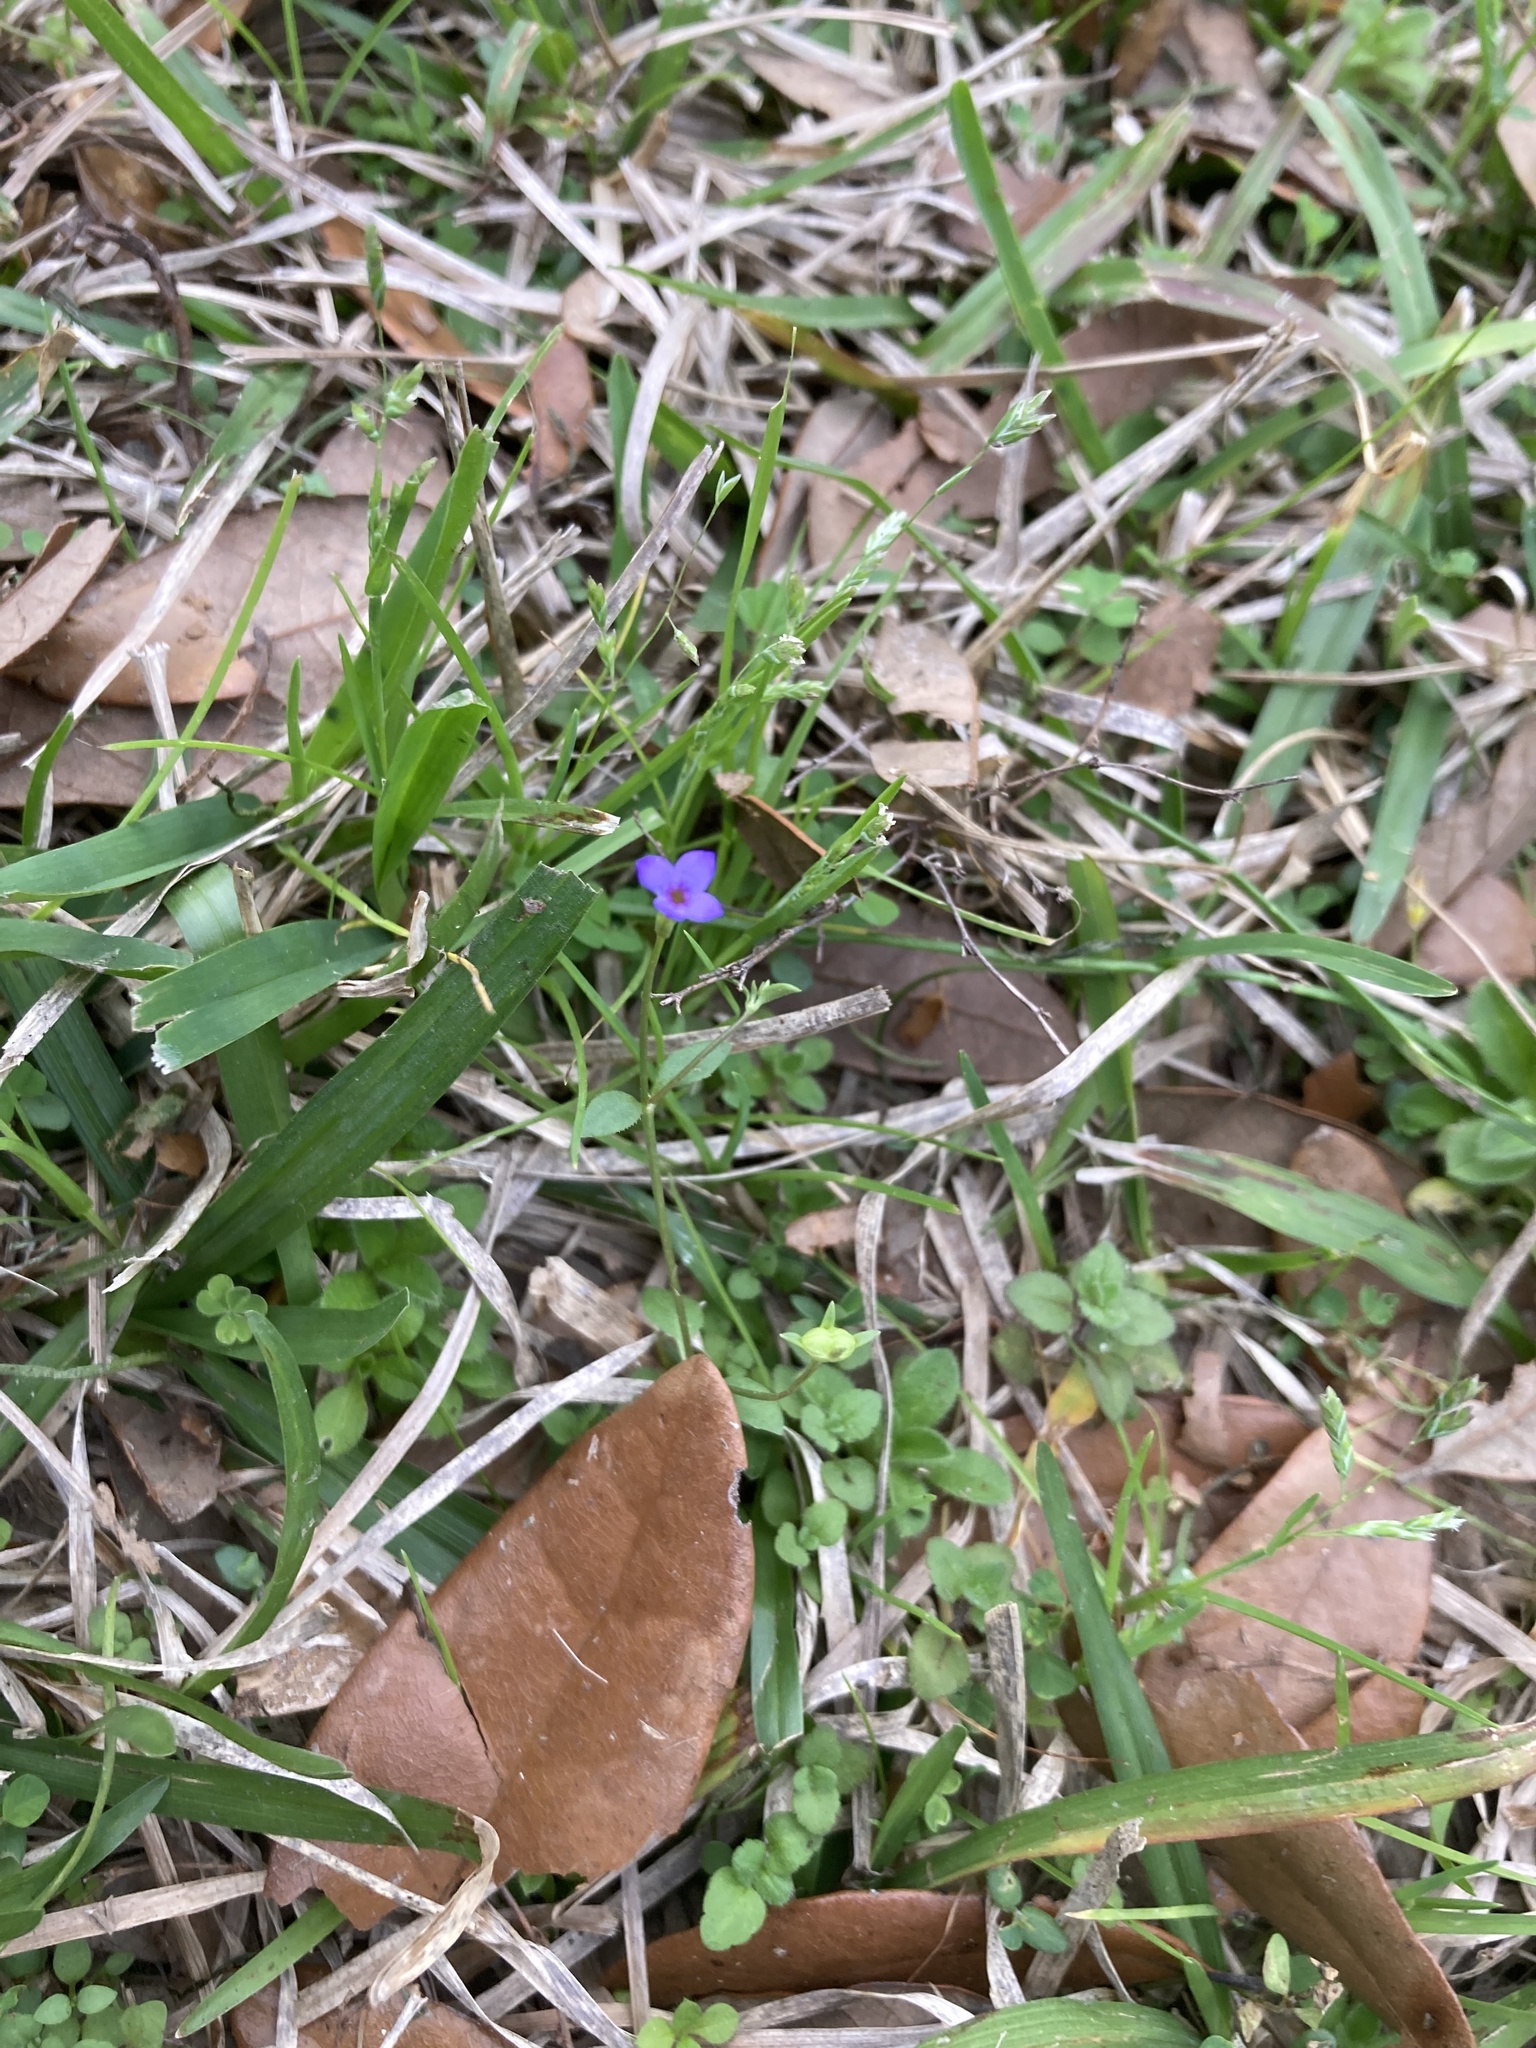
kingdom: Plantae
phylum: Tracheophyta
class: Magnoliopsida
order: Gentianales
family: Rubiaceae
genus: Houstonia
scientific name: Houstonia pusilla
